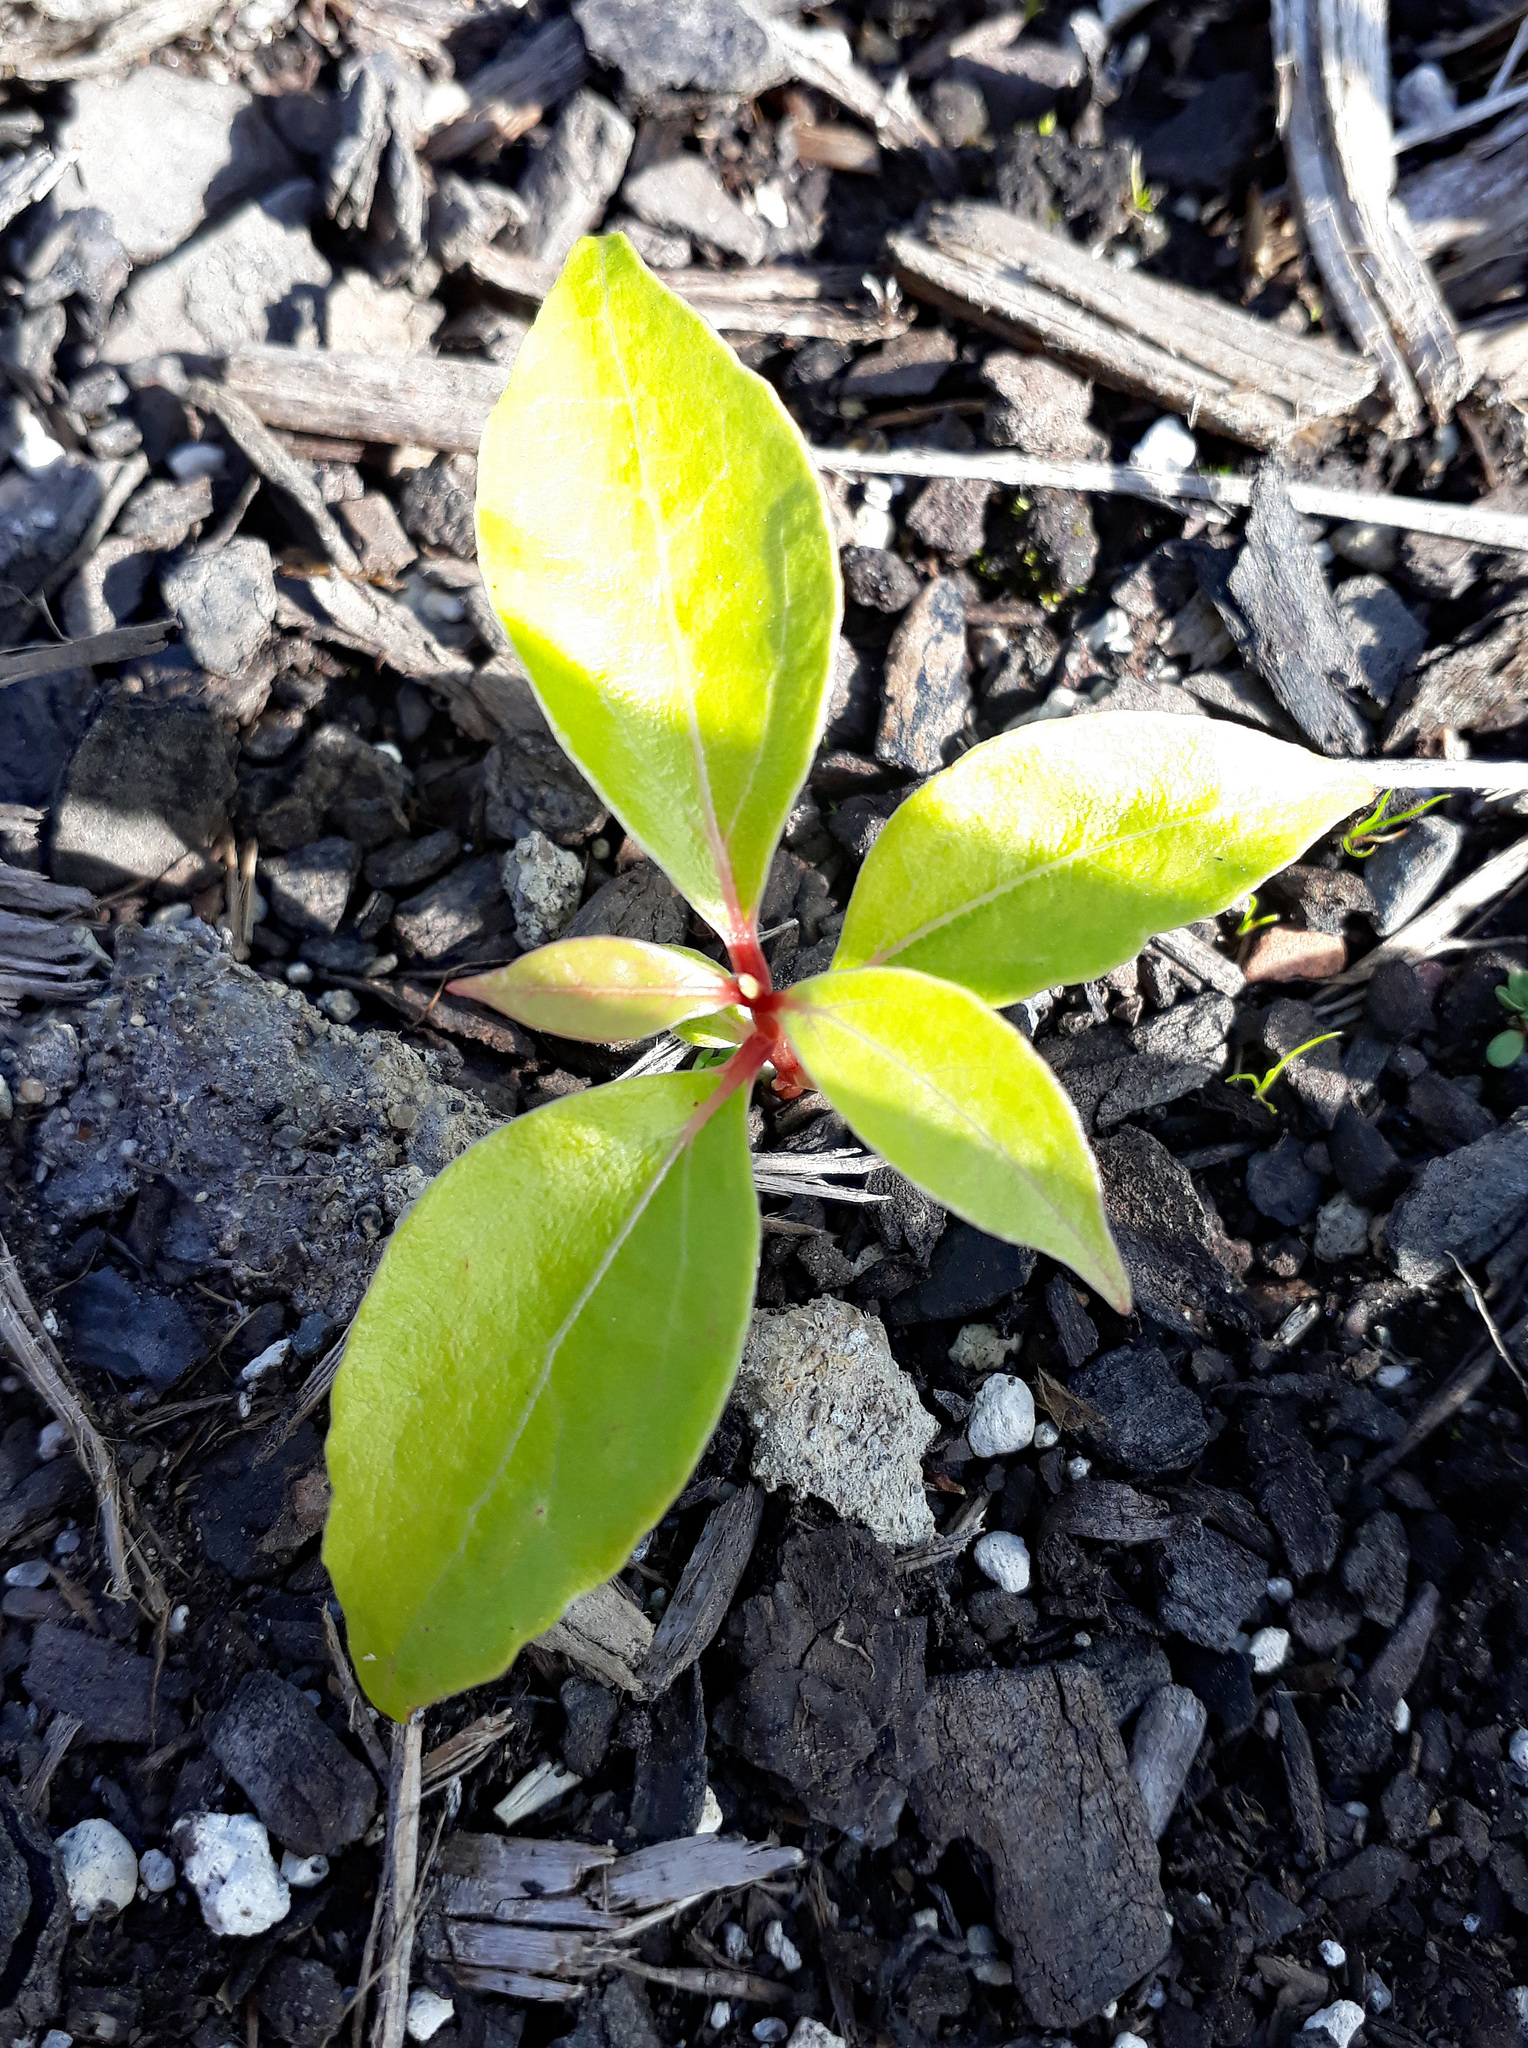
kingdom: Plantae
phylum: Tracheophyta
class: Magnoliopsida
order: Laurales
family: Lauraceae
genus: Cinnamomum
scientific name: Cinnamomum camphora
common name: Camphortree
